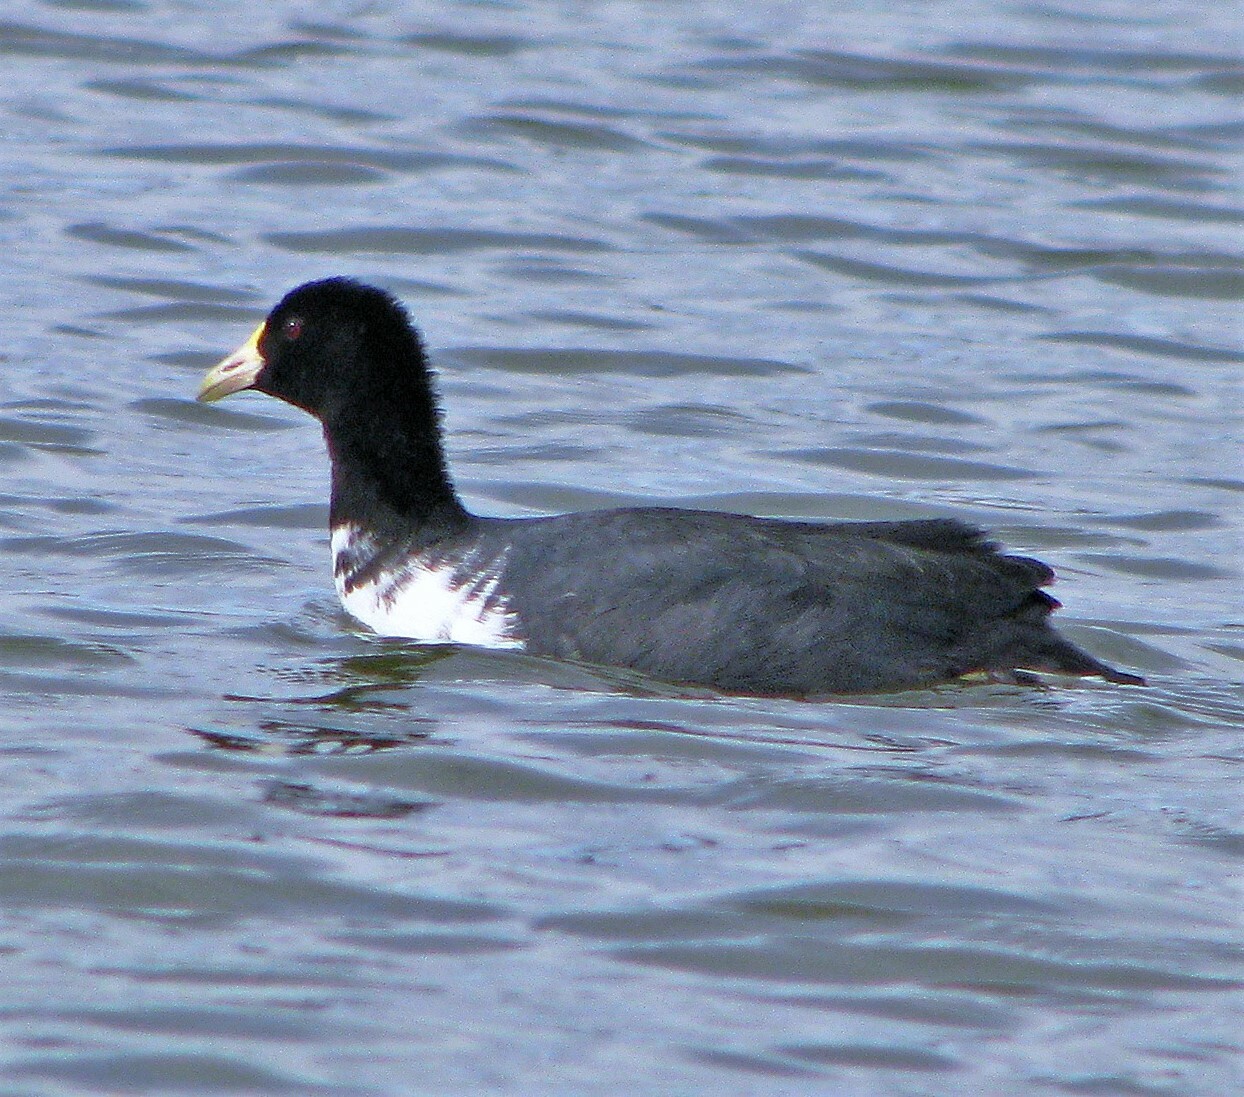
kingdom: Animalia
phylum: Chordata
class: Aves
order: Gruiformes
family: Rallidae
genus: Fulica
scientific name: Fulica leucoptera
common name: White-winged coot
